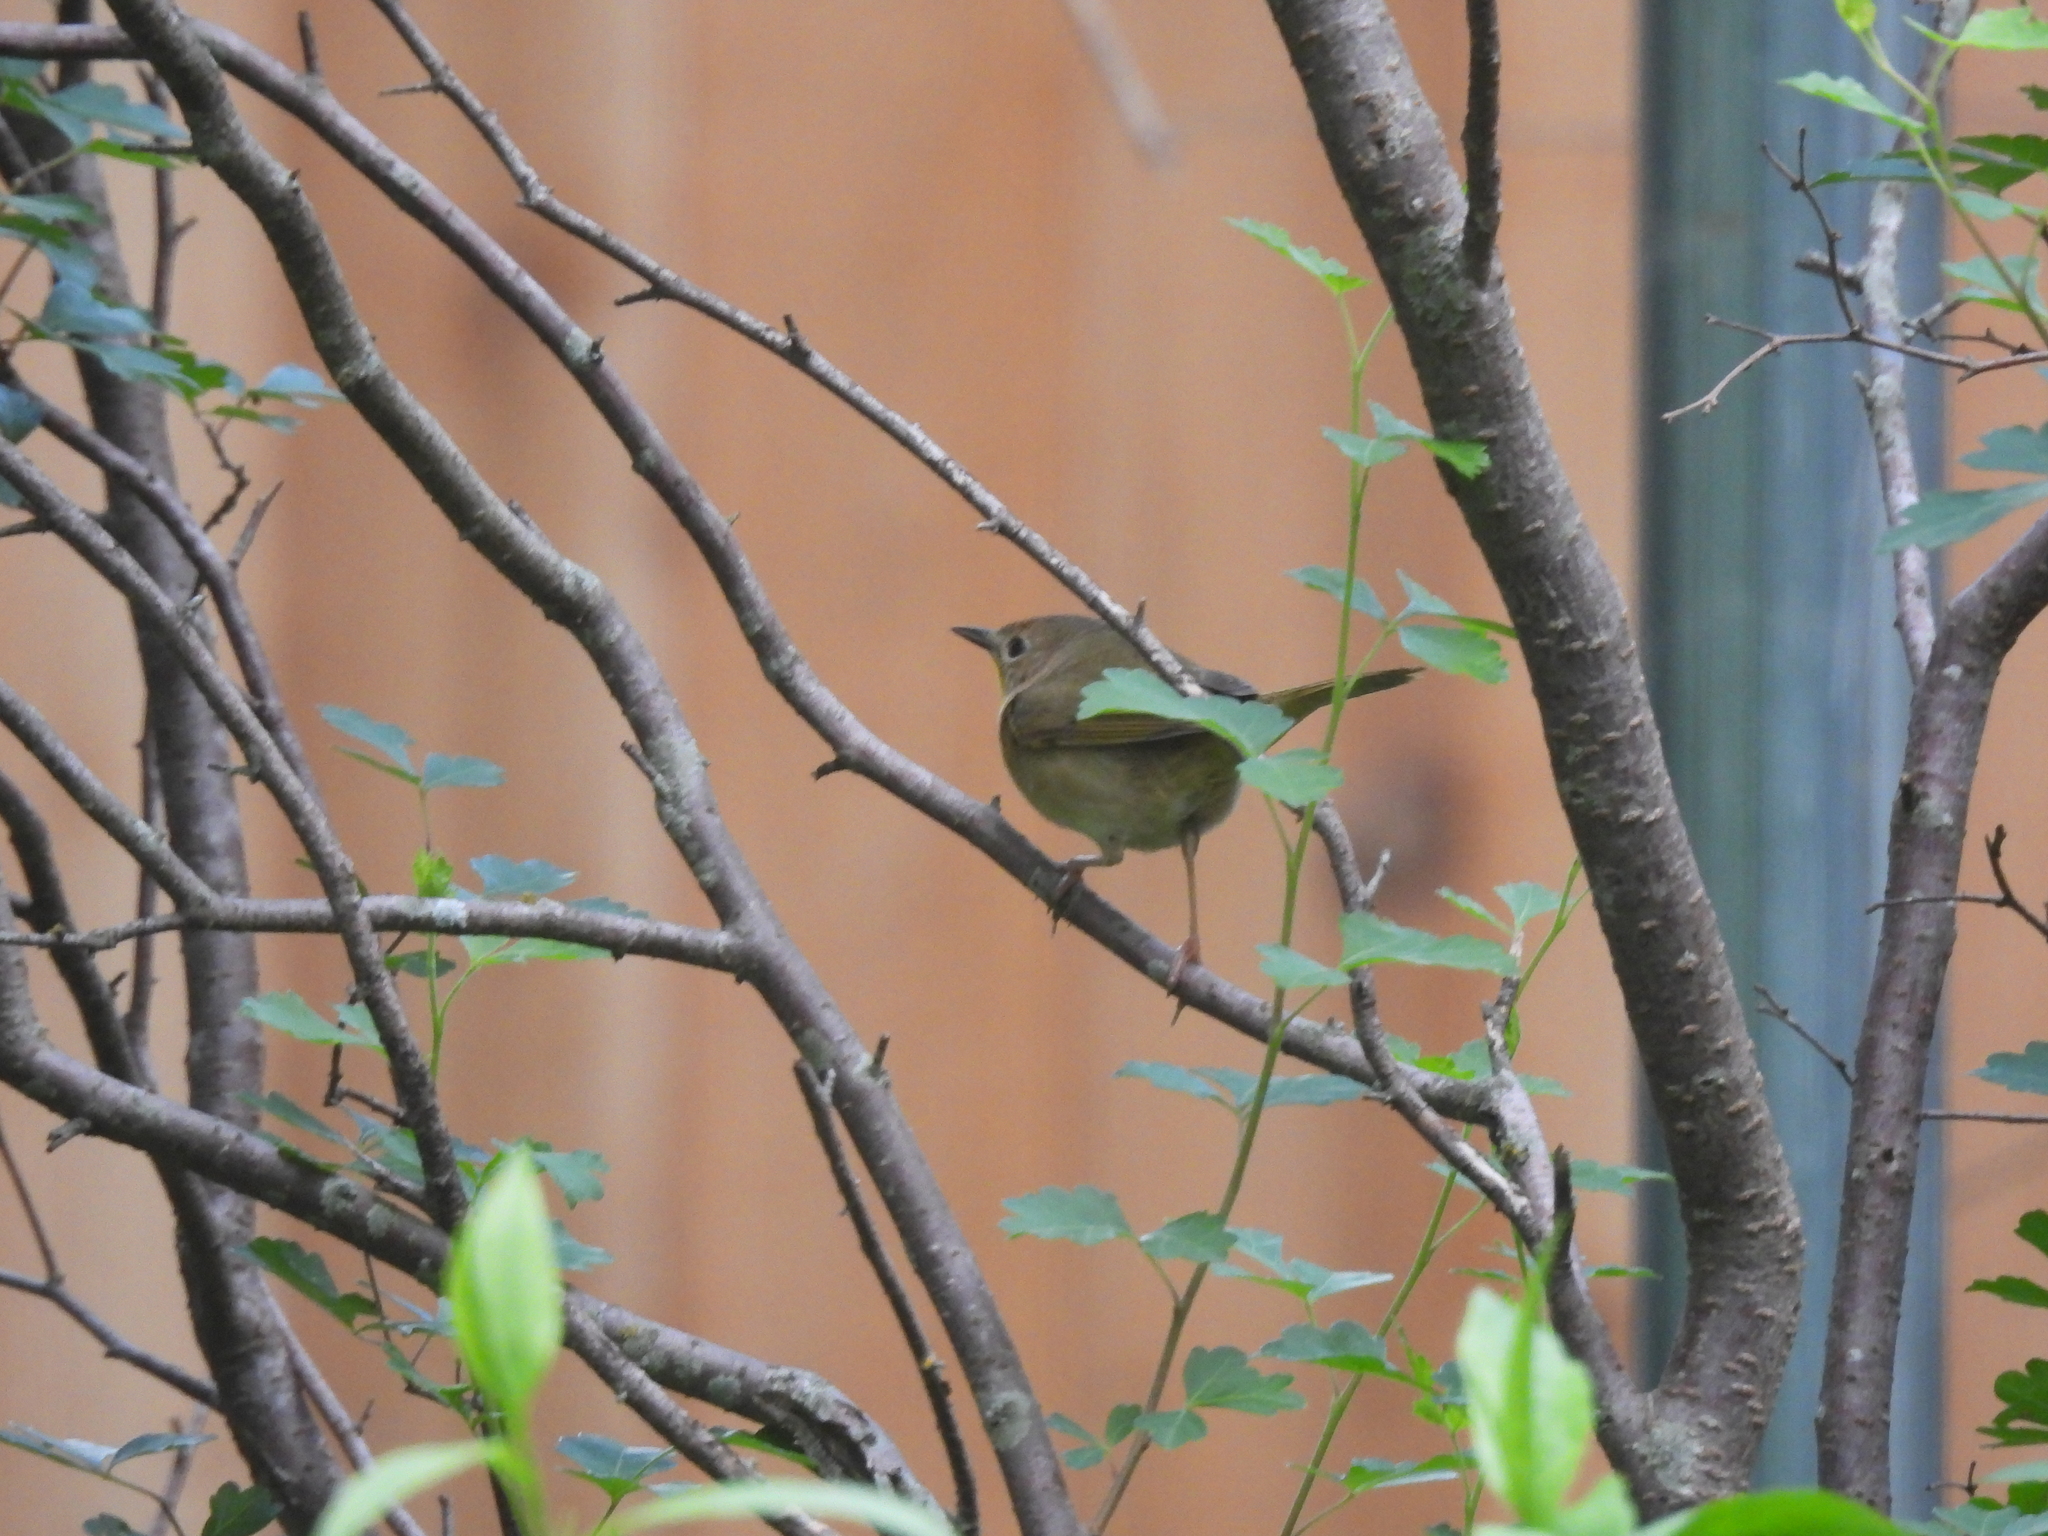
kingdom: Animalia
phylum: Chordata
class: Aves
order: Passeriformes
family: Parulidae
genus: Geothlypis
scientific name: Geothlypis trichas
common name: Common yellowthroat
